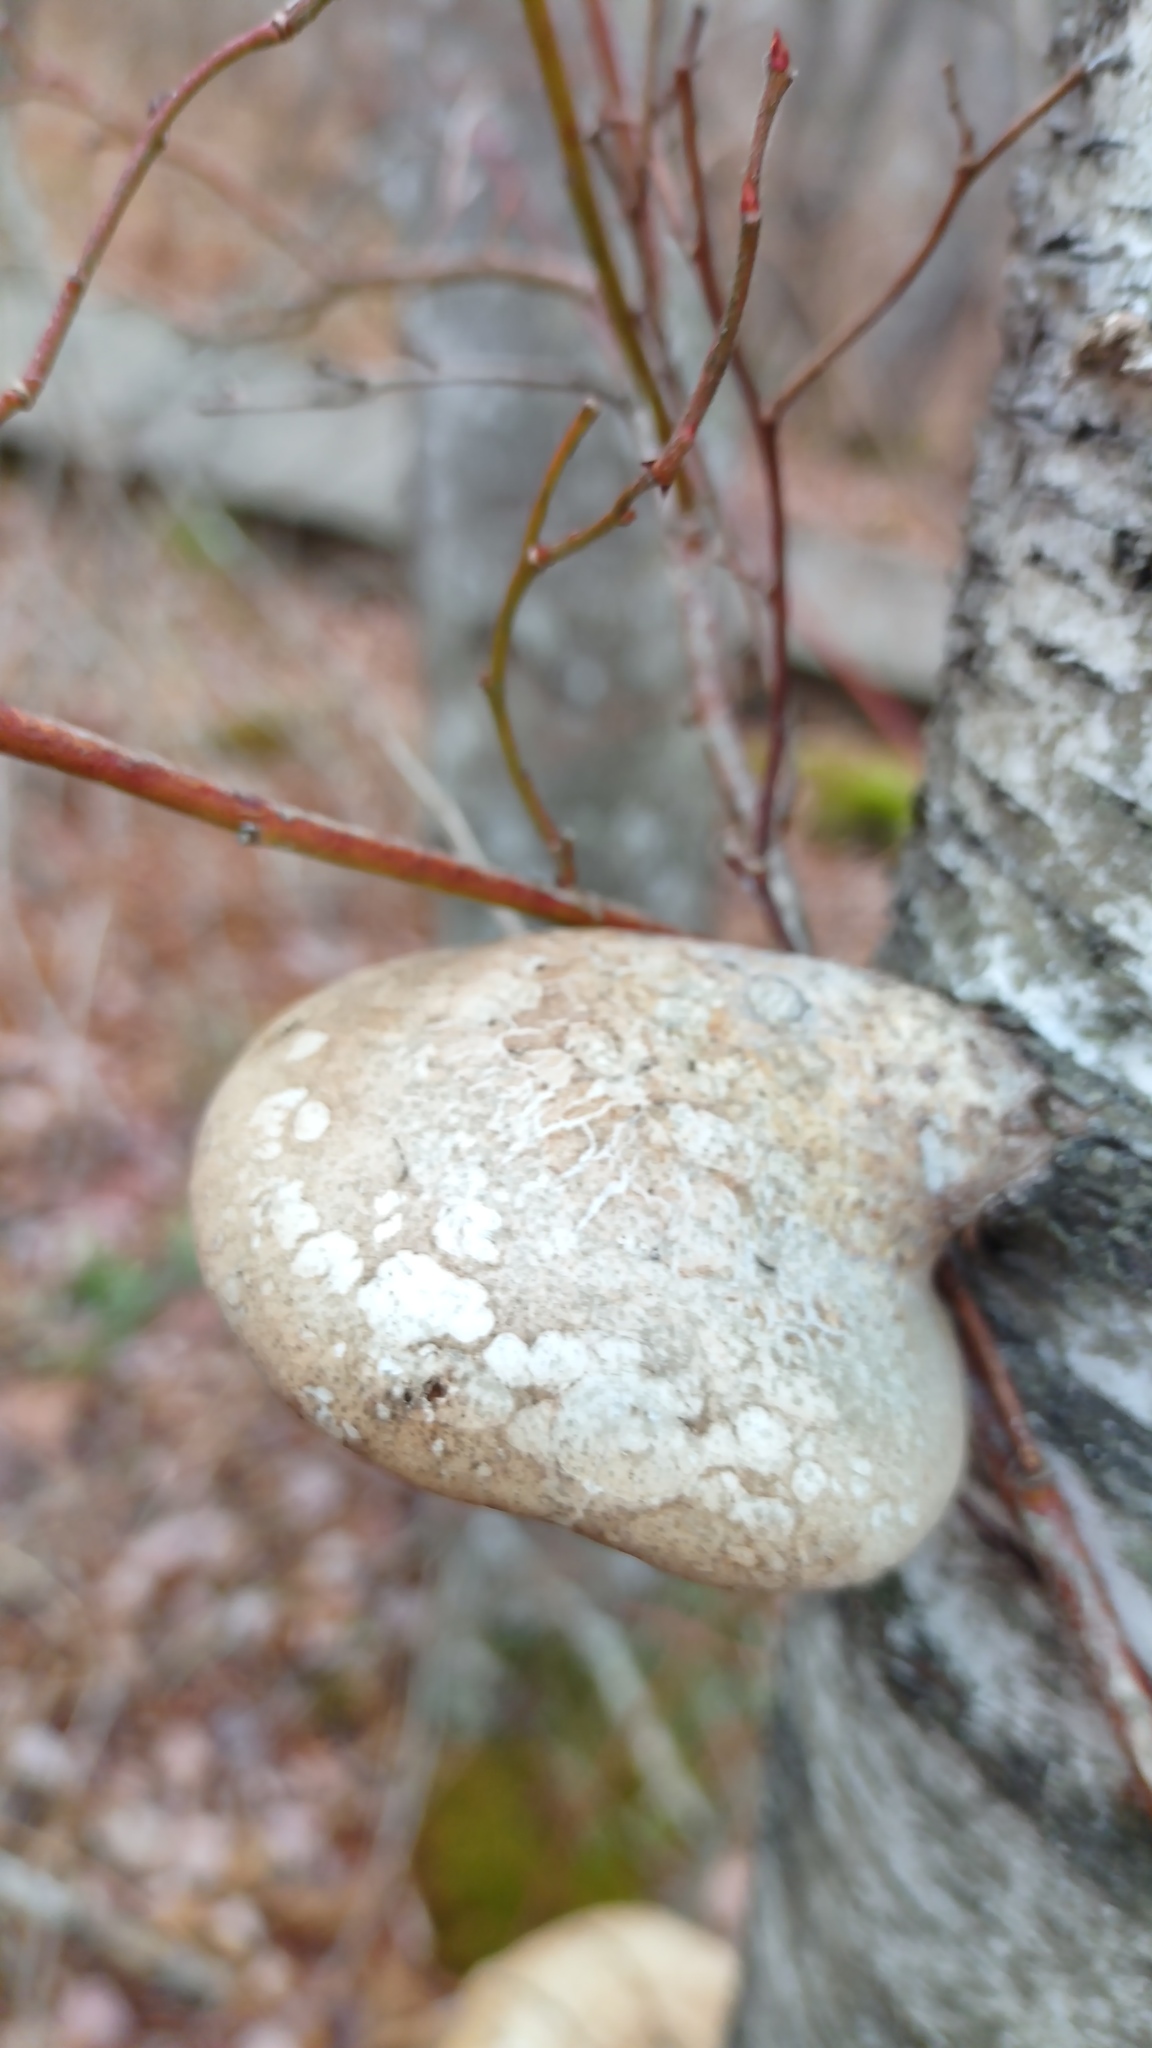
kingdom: Fungi
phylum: Basidiomycota
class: Agaricomycetes
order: Polyporales
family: Fomitopsidaceae
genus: Fomitopsis
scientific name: Fomitopsis betulina
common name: Birch polypore
